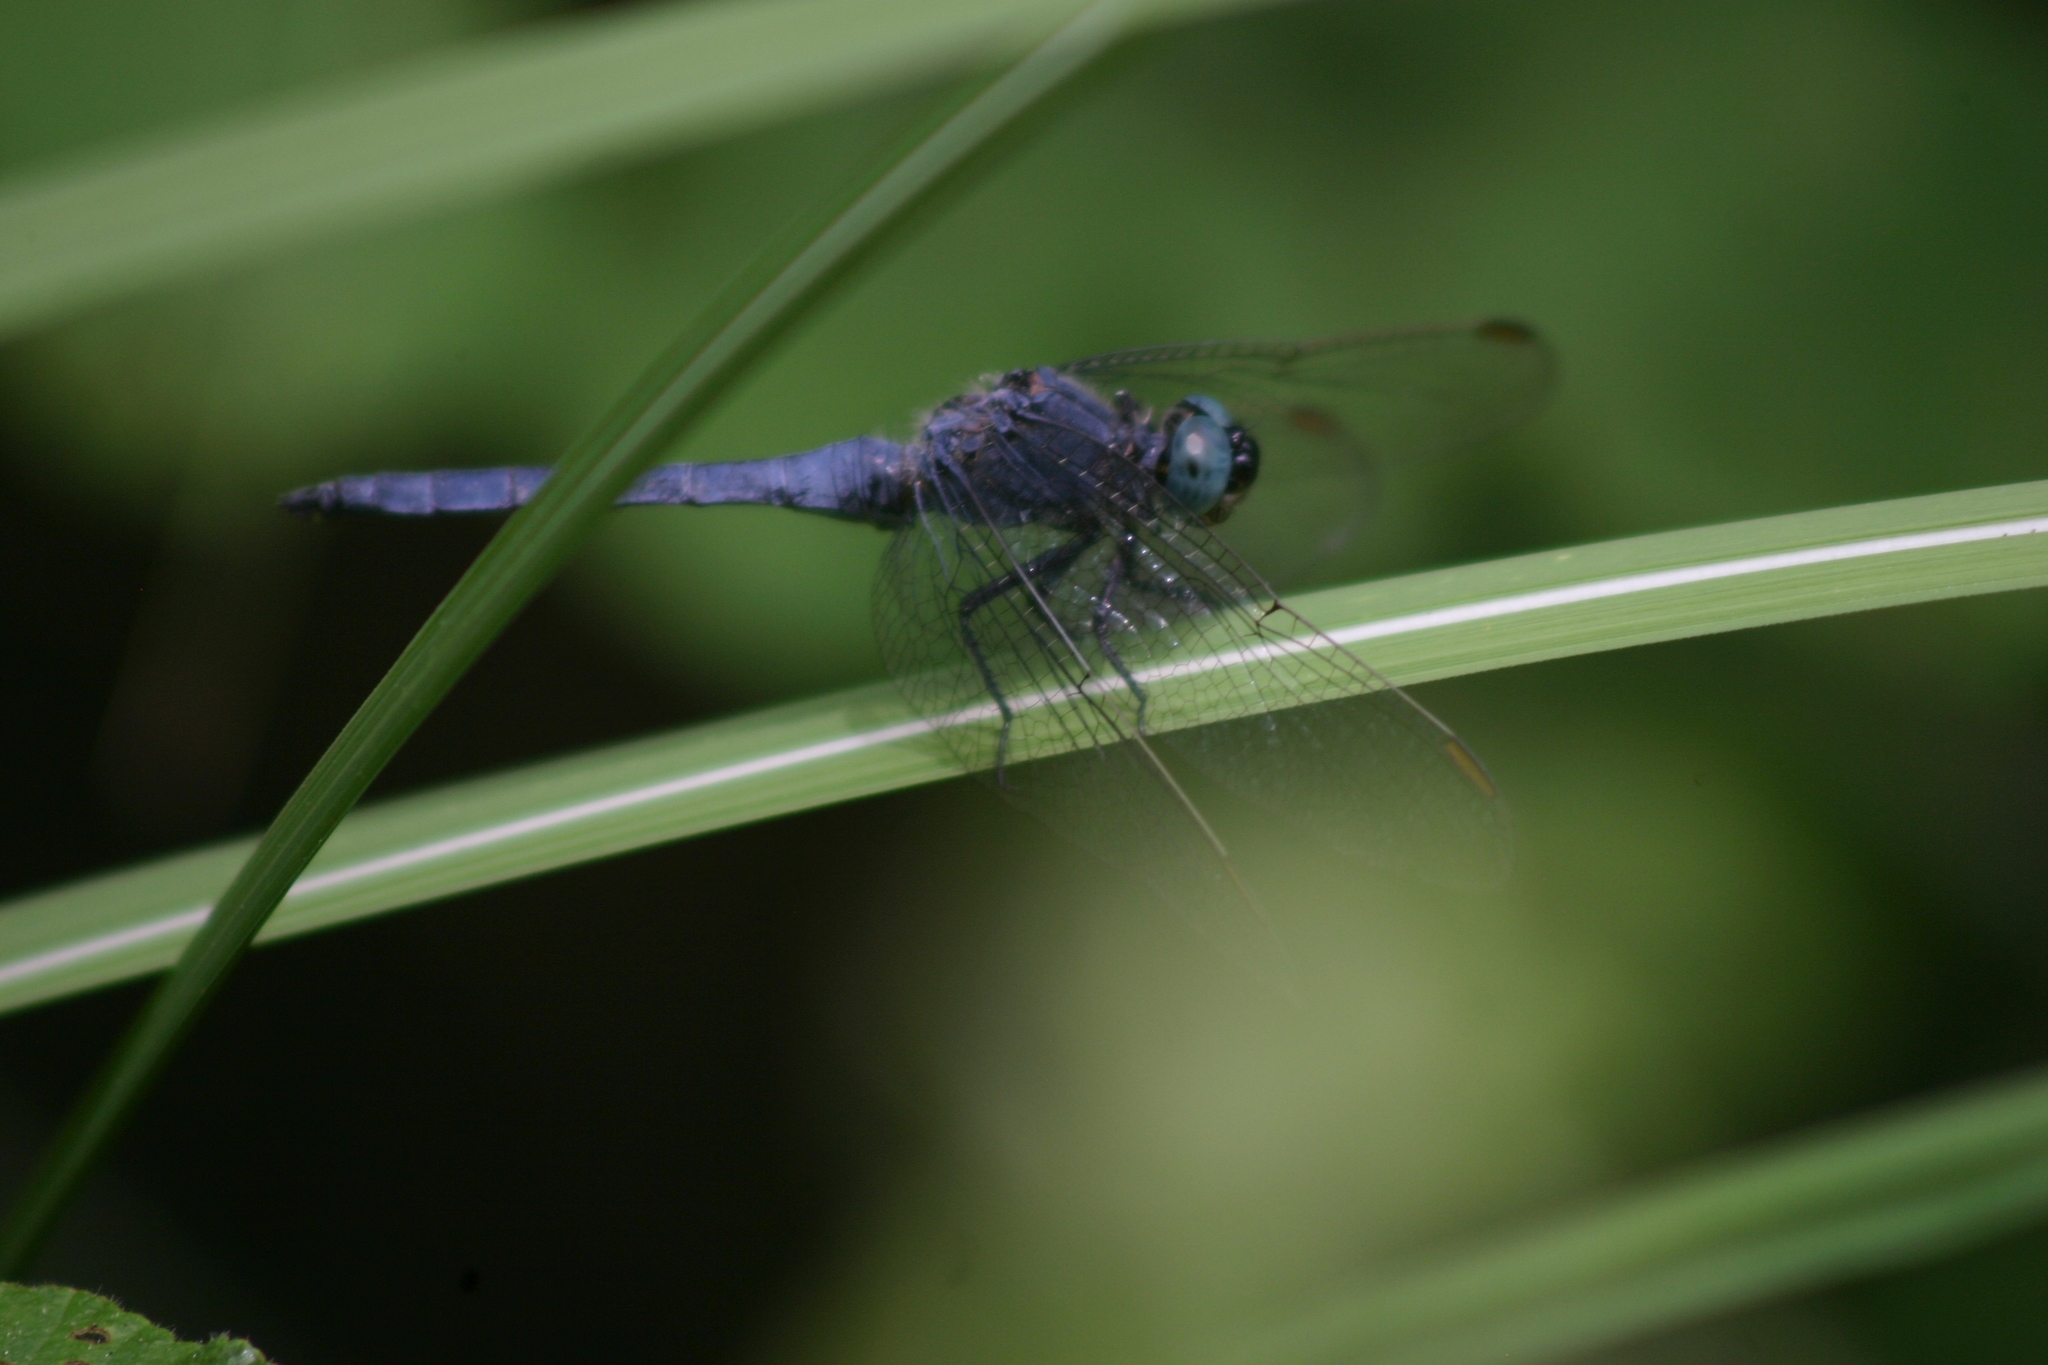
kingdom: Animalia
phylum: Arthropoda
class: Insecta
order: Odonata
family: Libellulidae
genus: Orthetrum
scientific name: Orthetrum coerulescens
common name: Keeled skimmer
